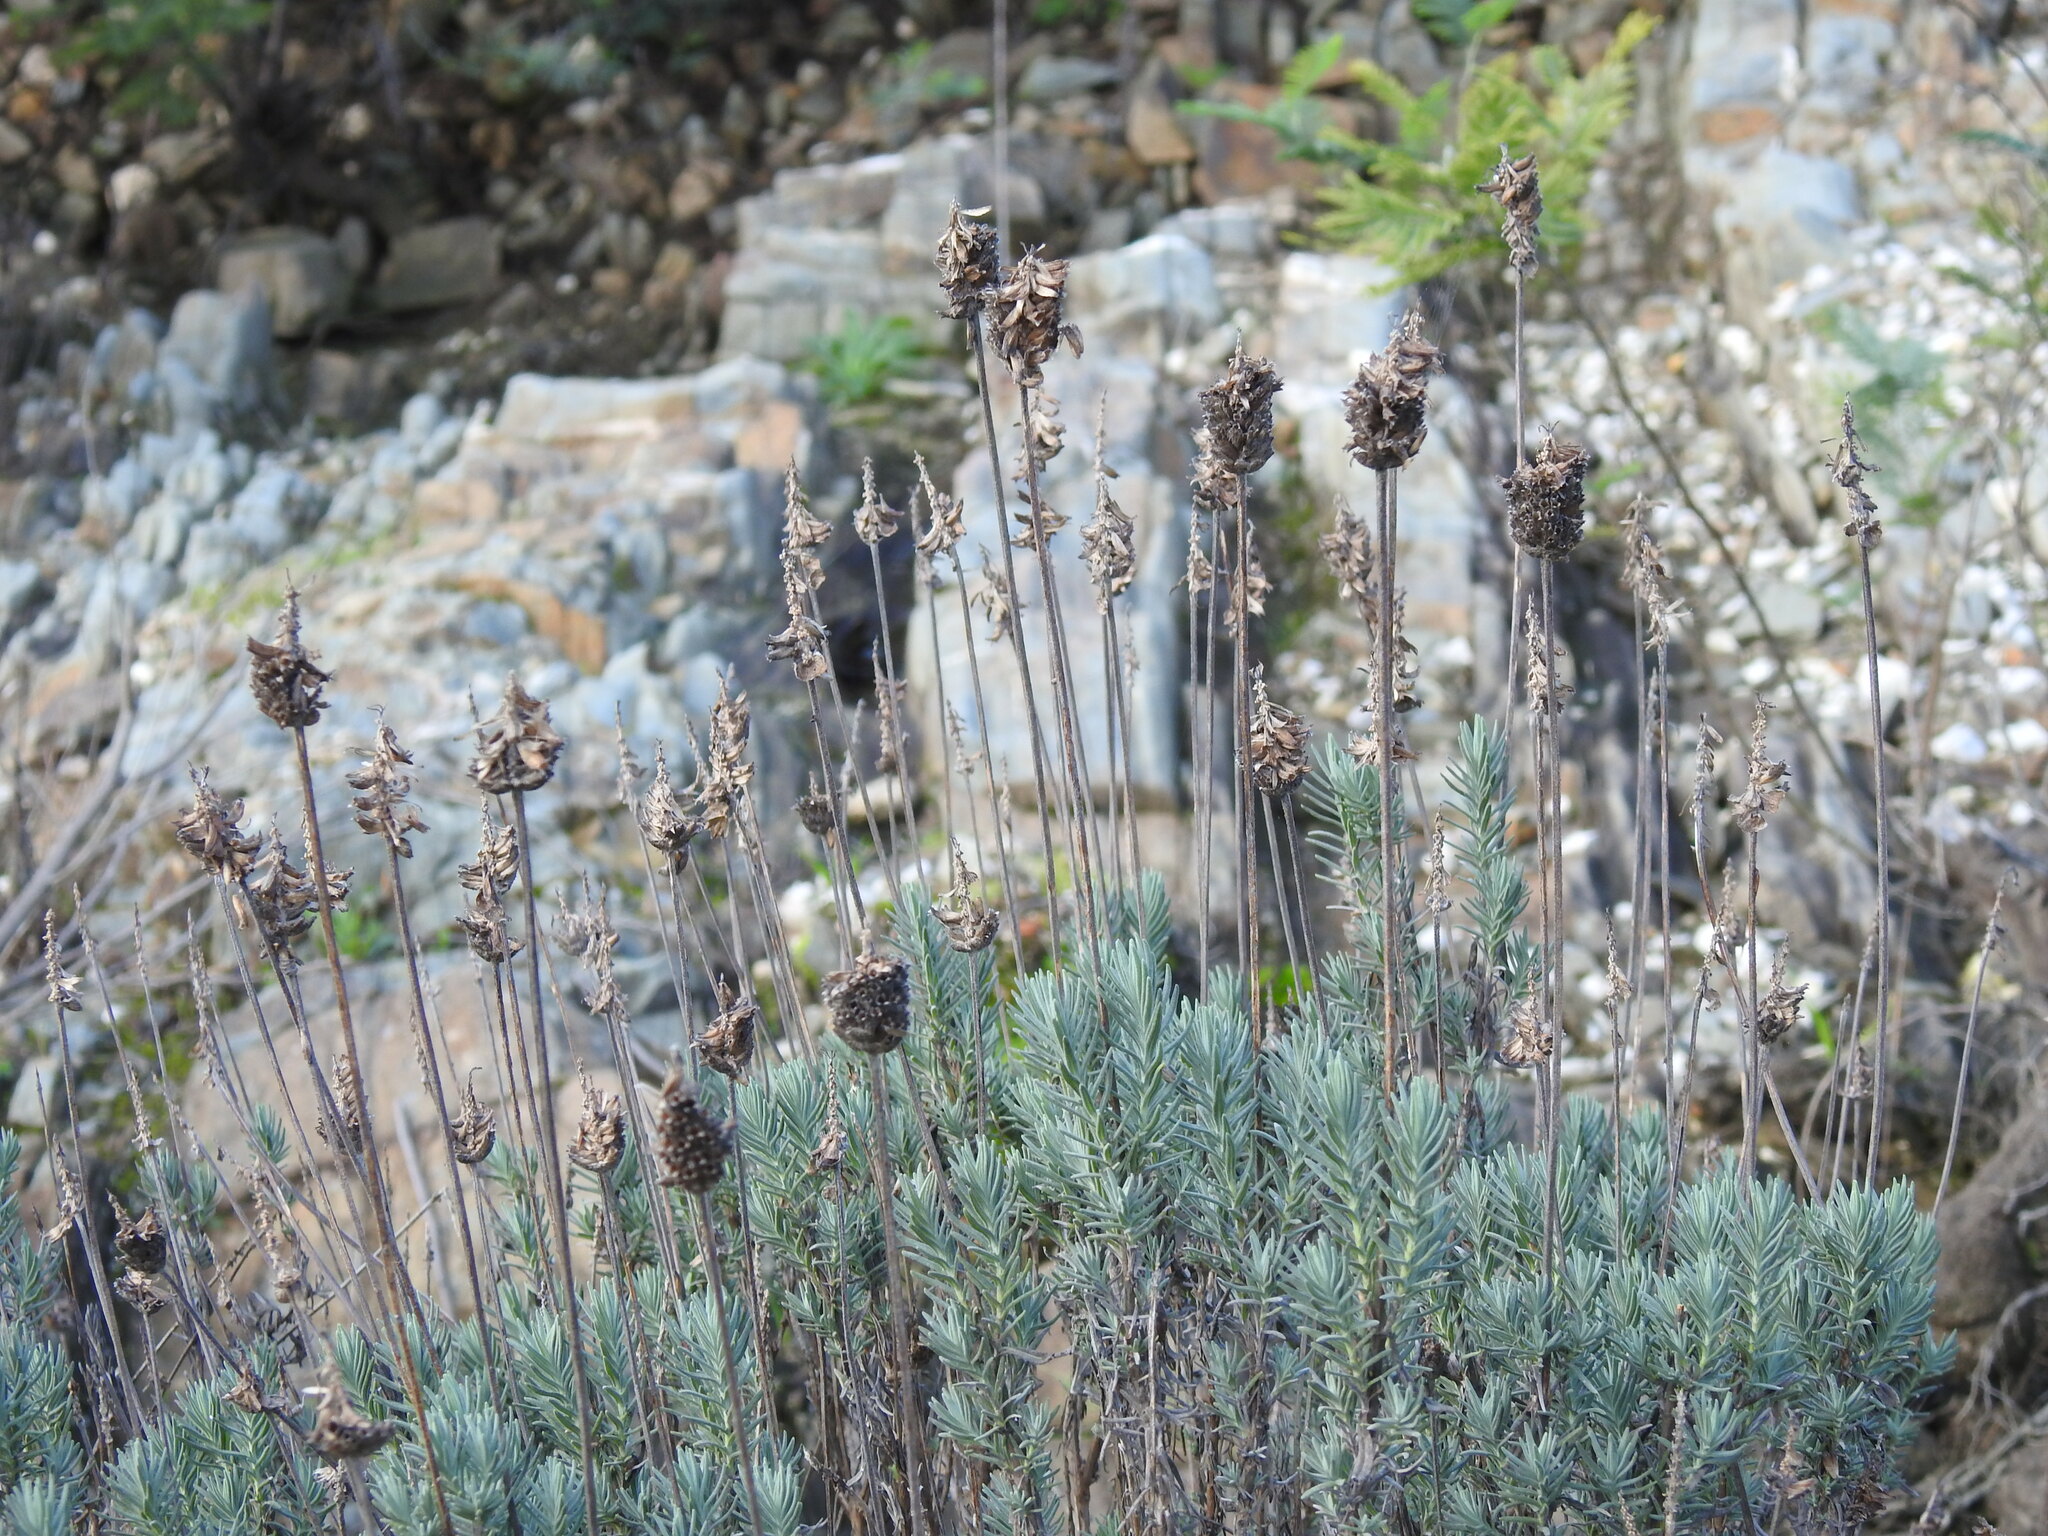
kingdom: Plantae
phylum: Tracheophyta
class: Magnoliopsida
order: Lamiales
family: Lamiaceae
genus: Lavandula
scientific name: Lavandula pedunculata
